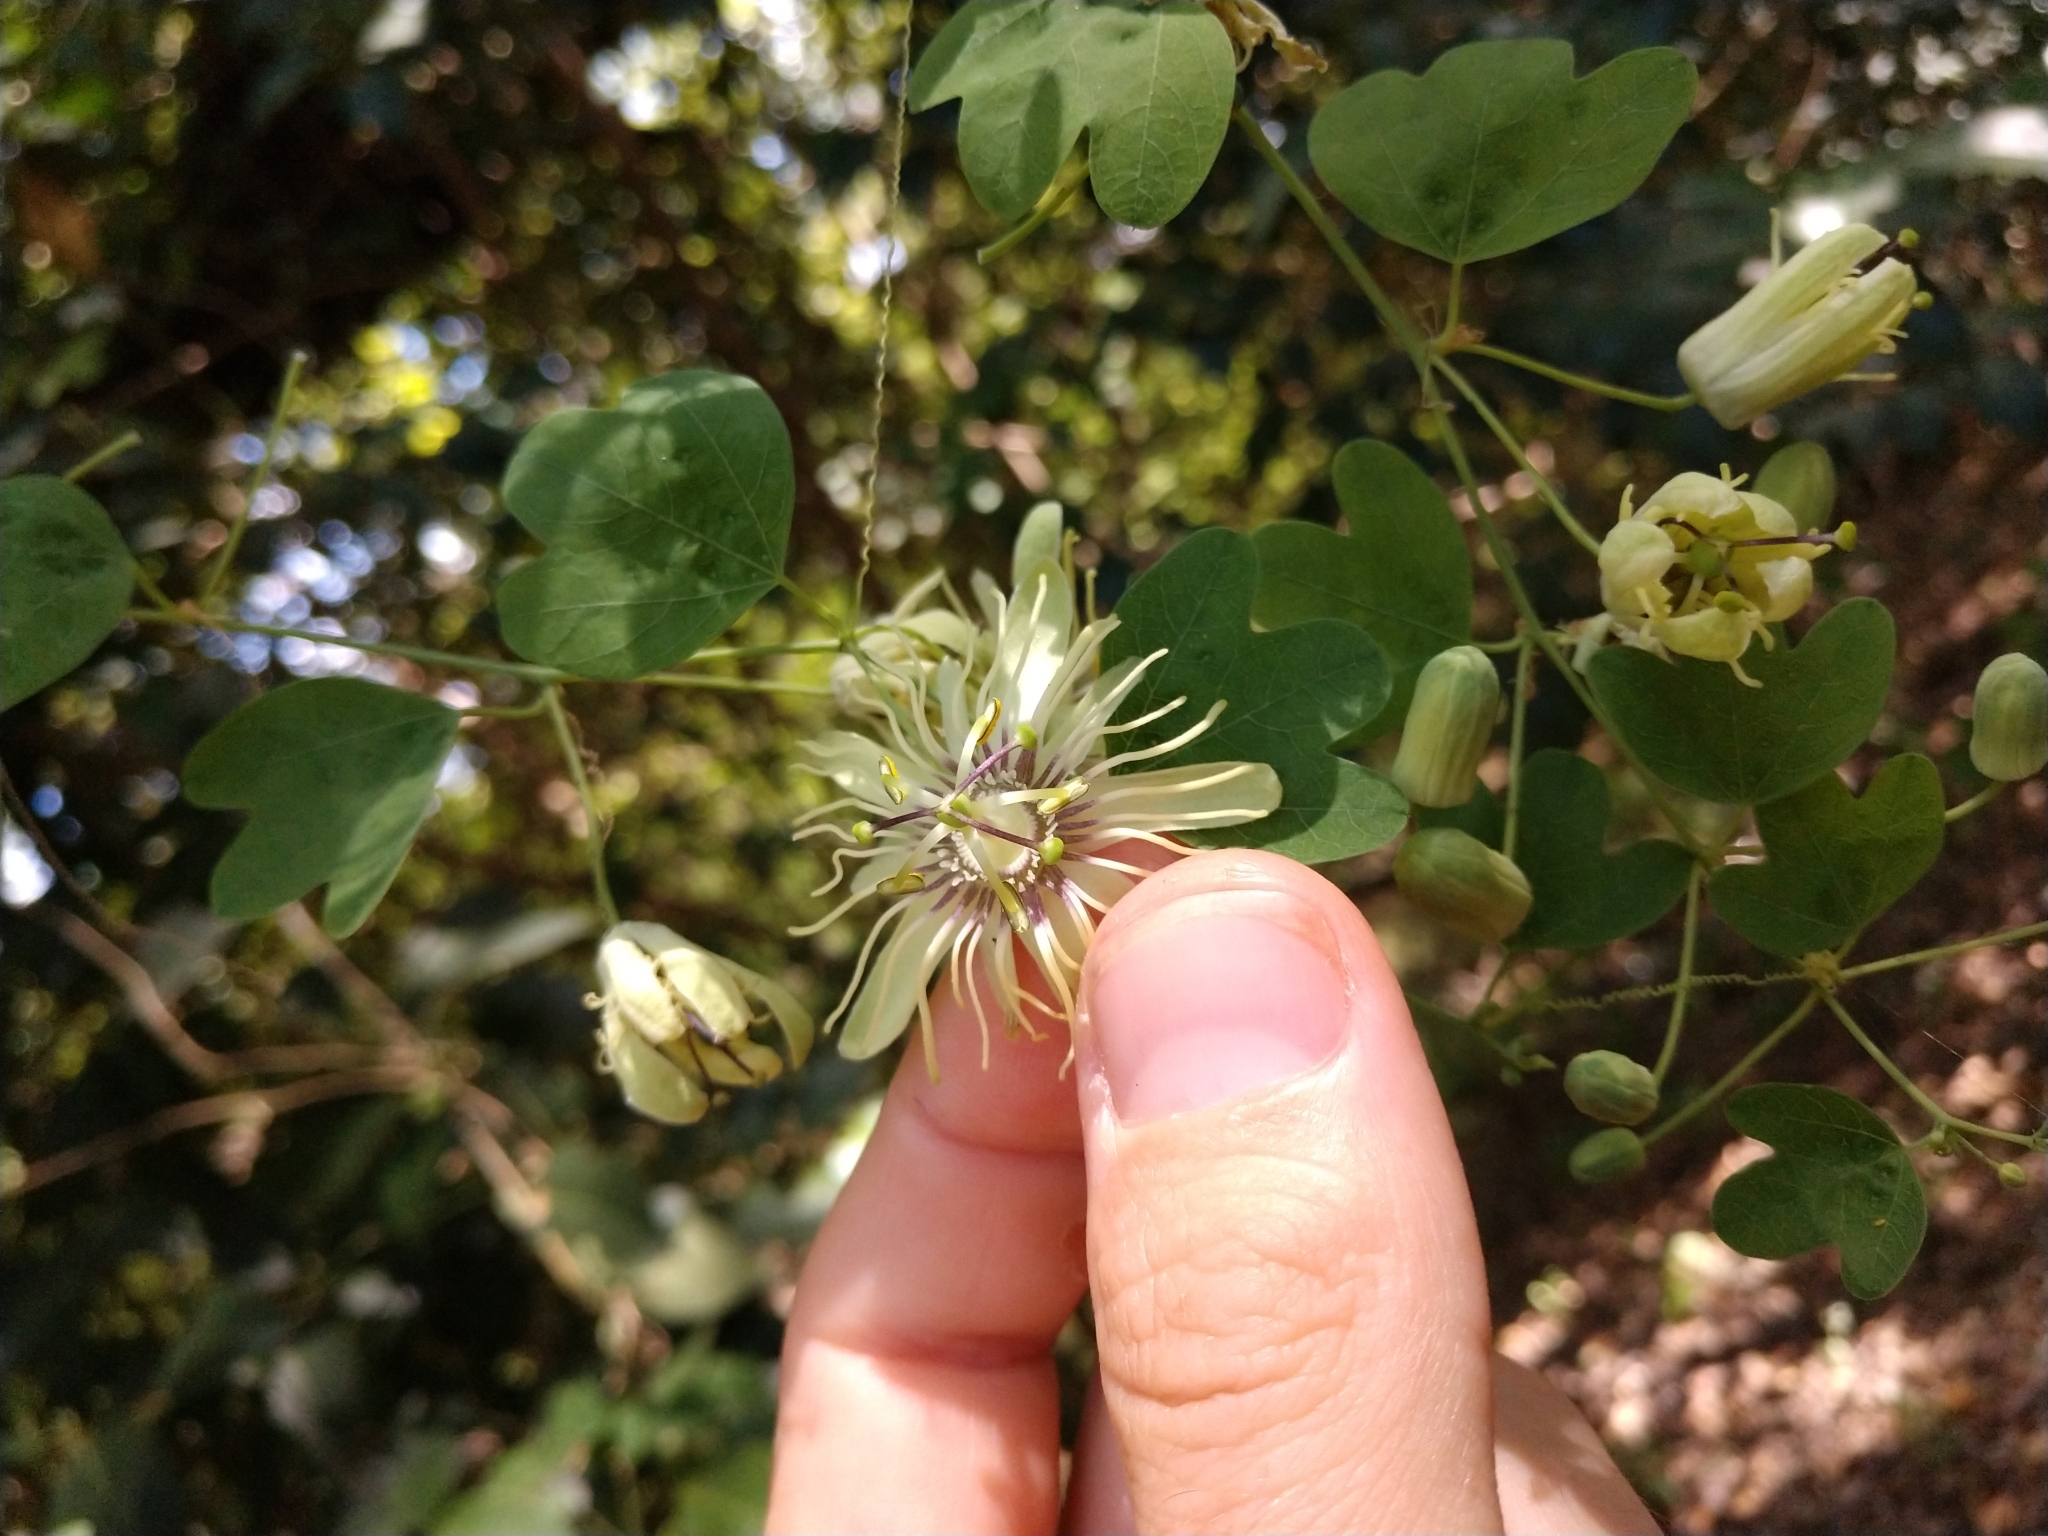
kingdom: Plantae
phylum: Tracheophyta
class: Magnoliopsida
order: Malpighiales
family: Passifloraceae
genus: Passiflora
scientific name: Passiflora affinis
